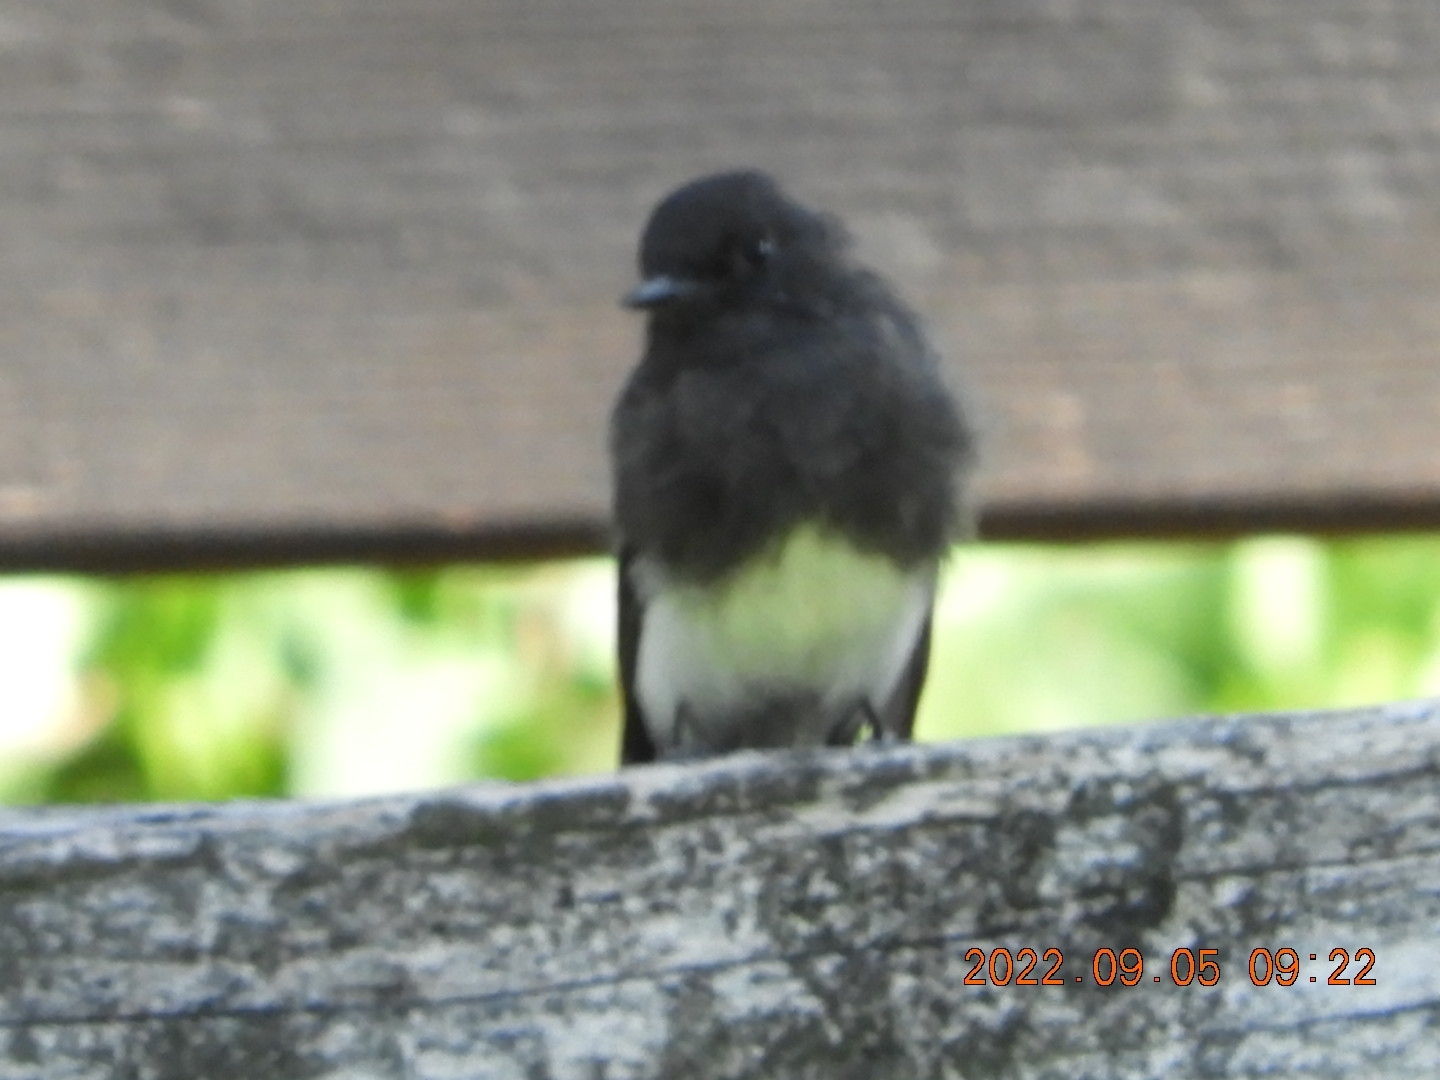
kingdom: Animalia
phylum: Chordata
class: Aves
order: Passeriformes
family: Tyrannidae
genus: Sayornis
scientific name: Sayornis nigricans
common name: Black phoebe
